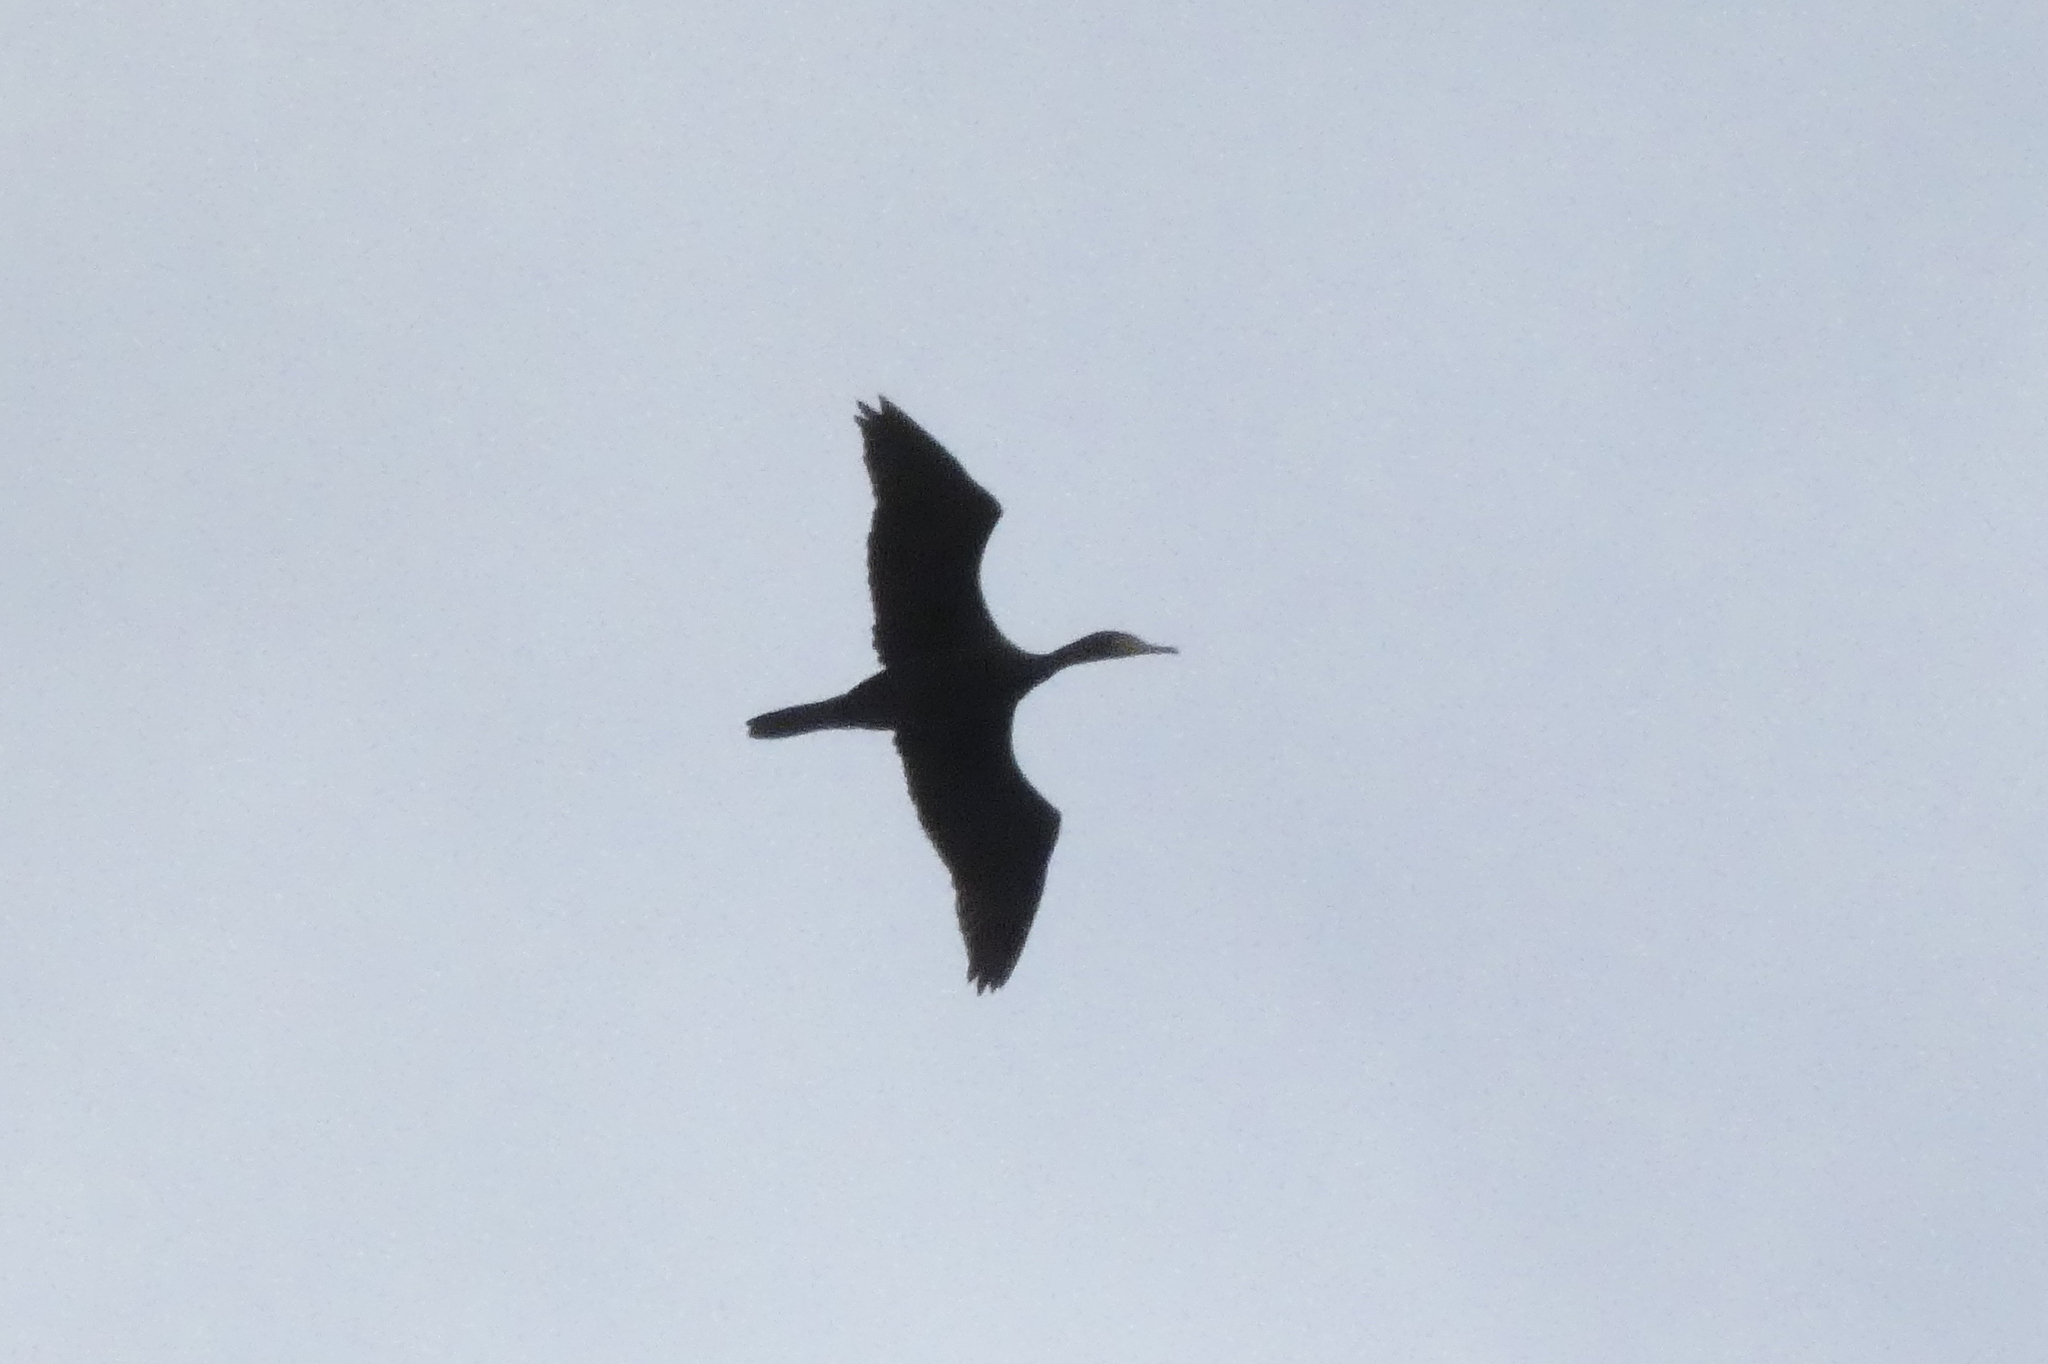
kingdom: Animalia
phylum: Chordata
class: Aves
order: Suliformes
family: Phalacrocoracidae
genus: Phalacrocorax
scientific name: Phalacrocorax carbo
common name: Great cormorant
